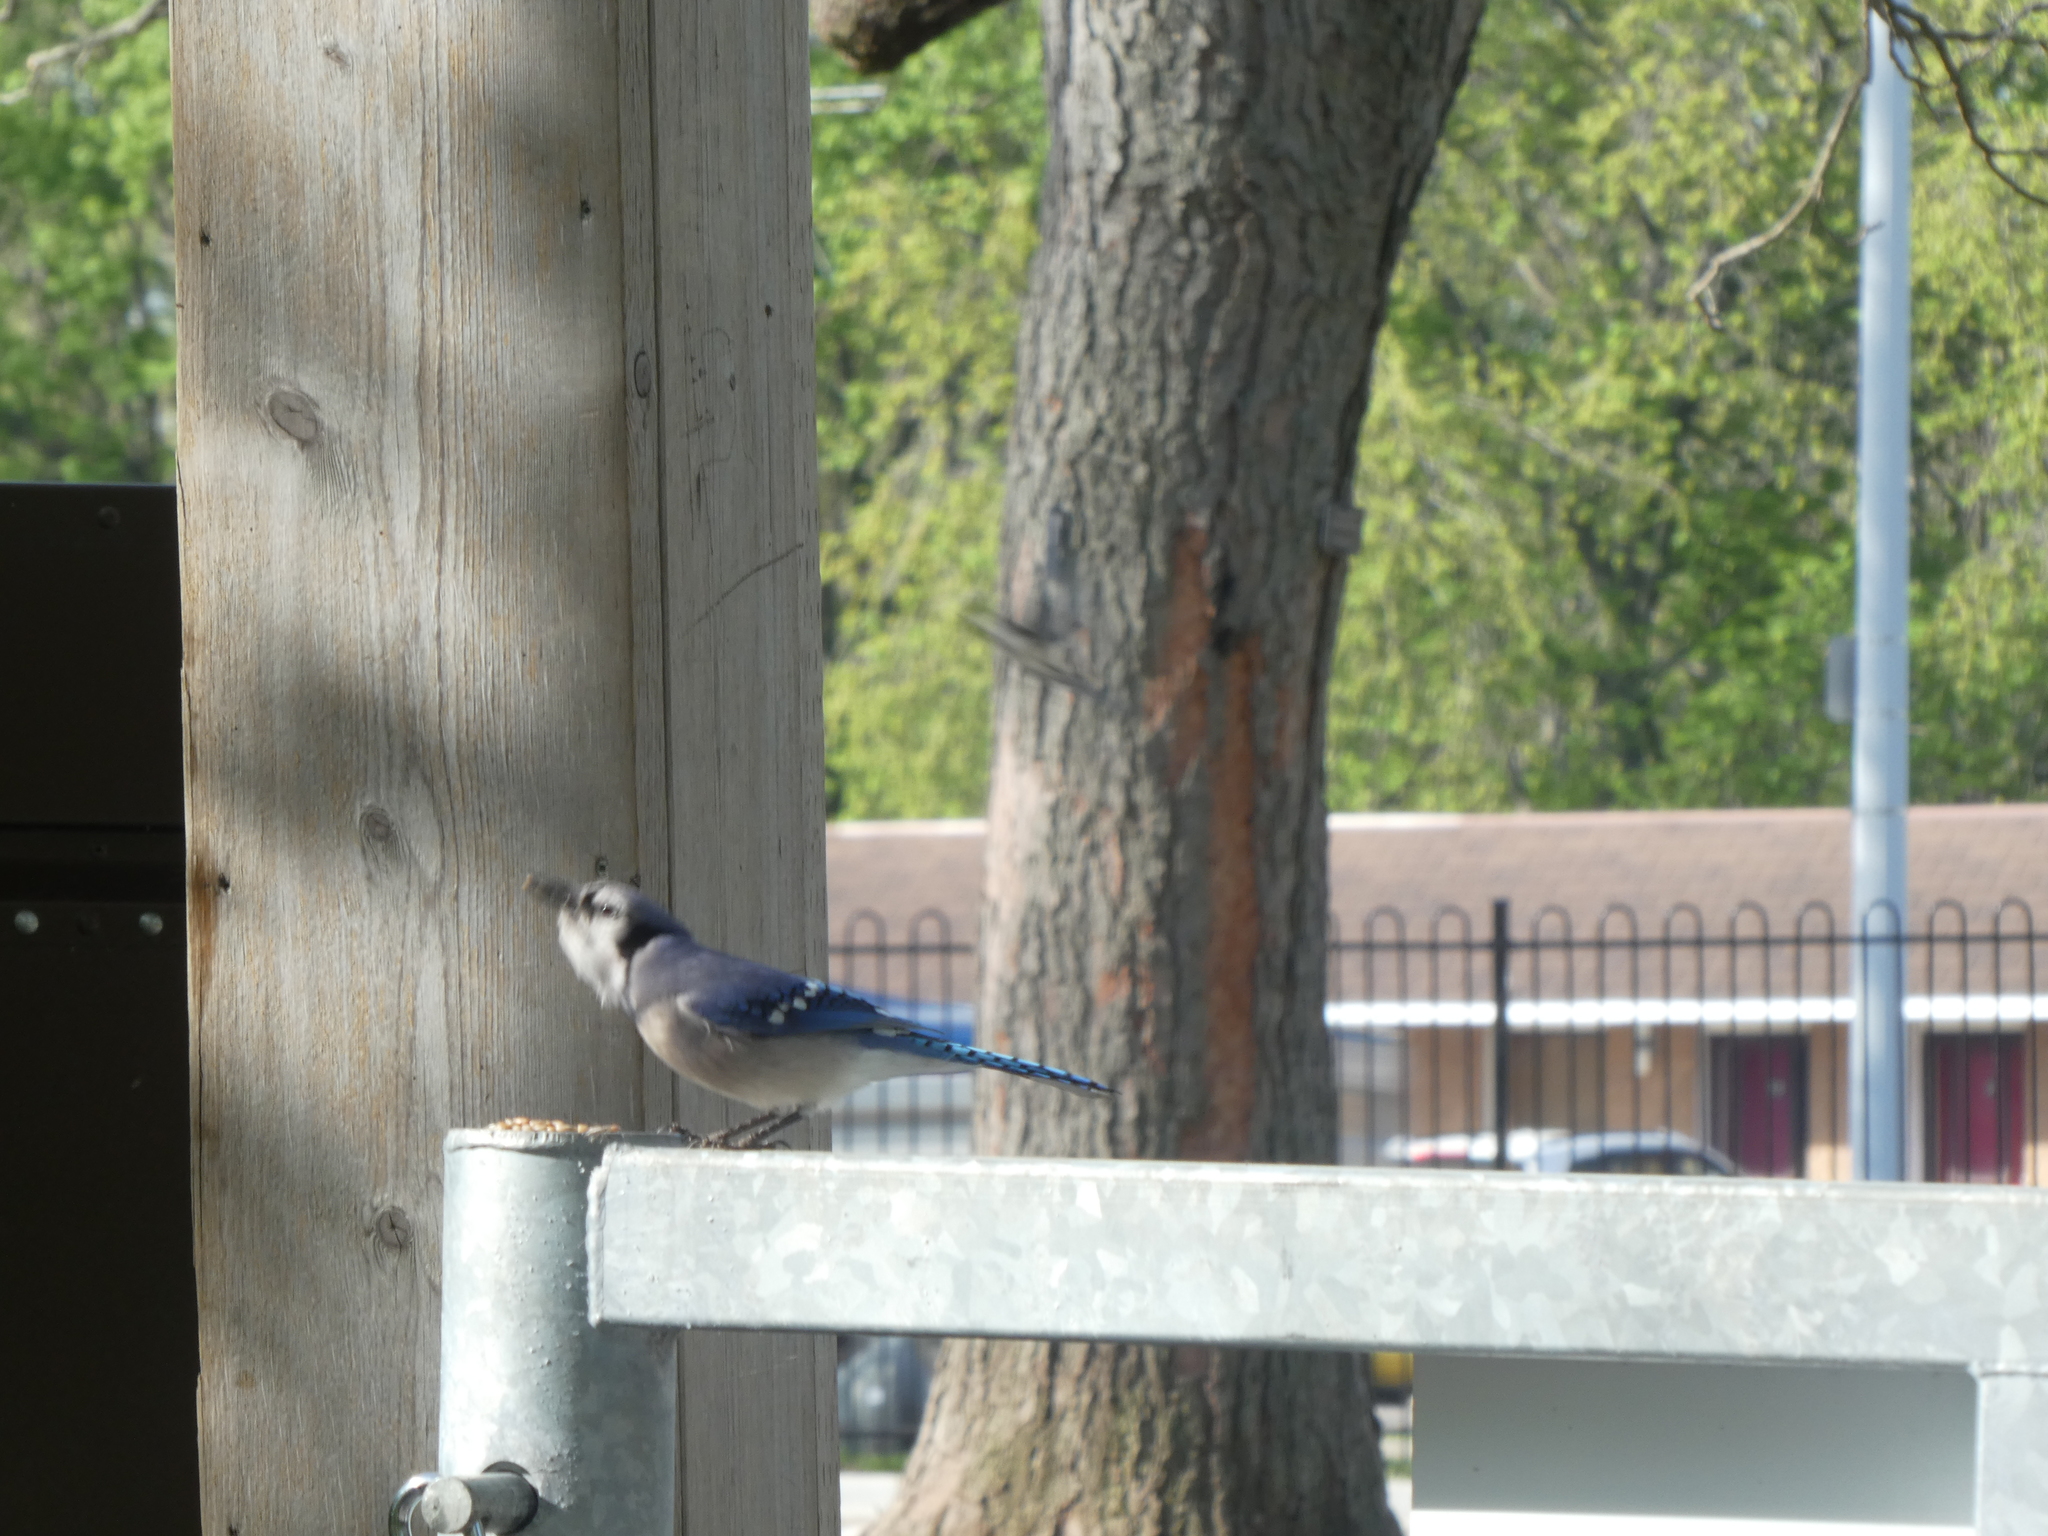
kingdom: Animalia
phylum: Chordata
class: Aves
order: Passeriformes
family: Corvidae
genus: Cyanocitta
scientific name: Cyanocitta cristata
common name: Blue jay
